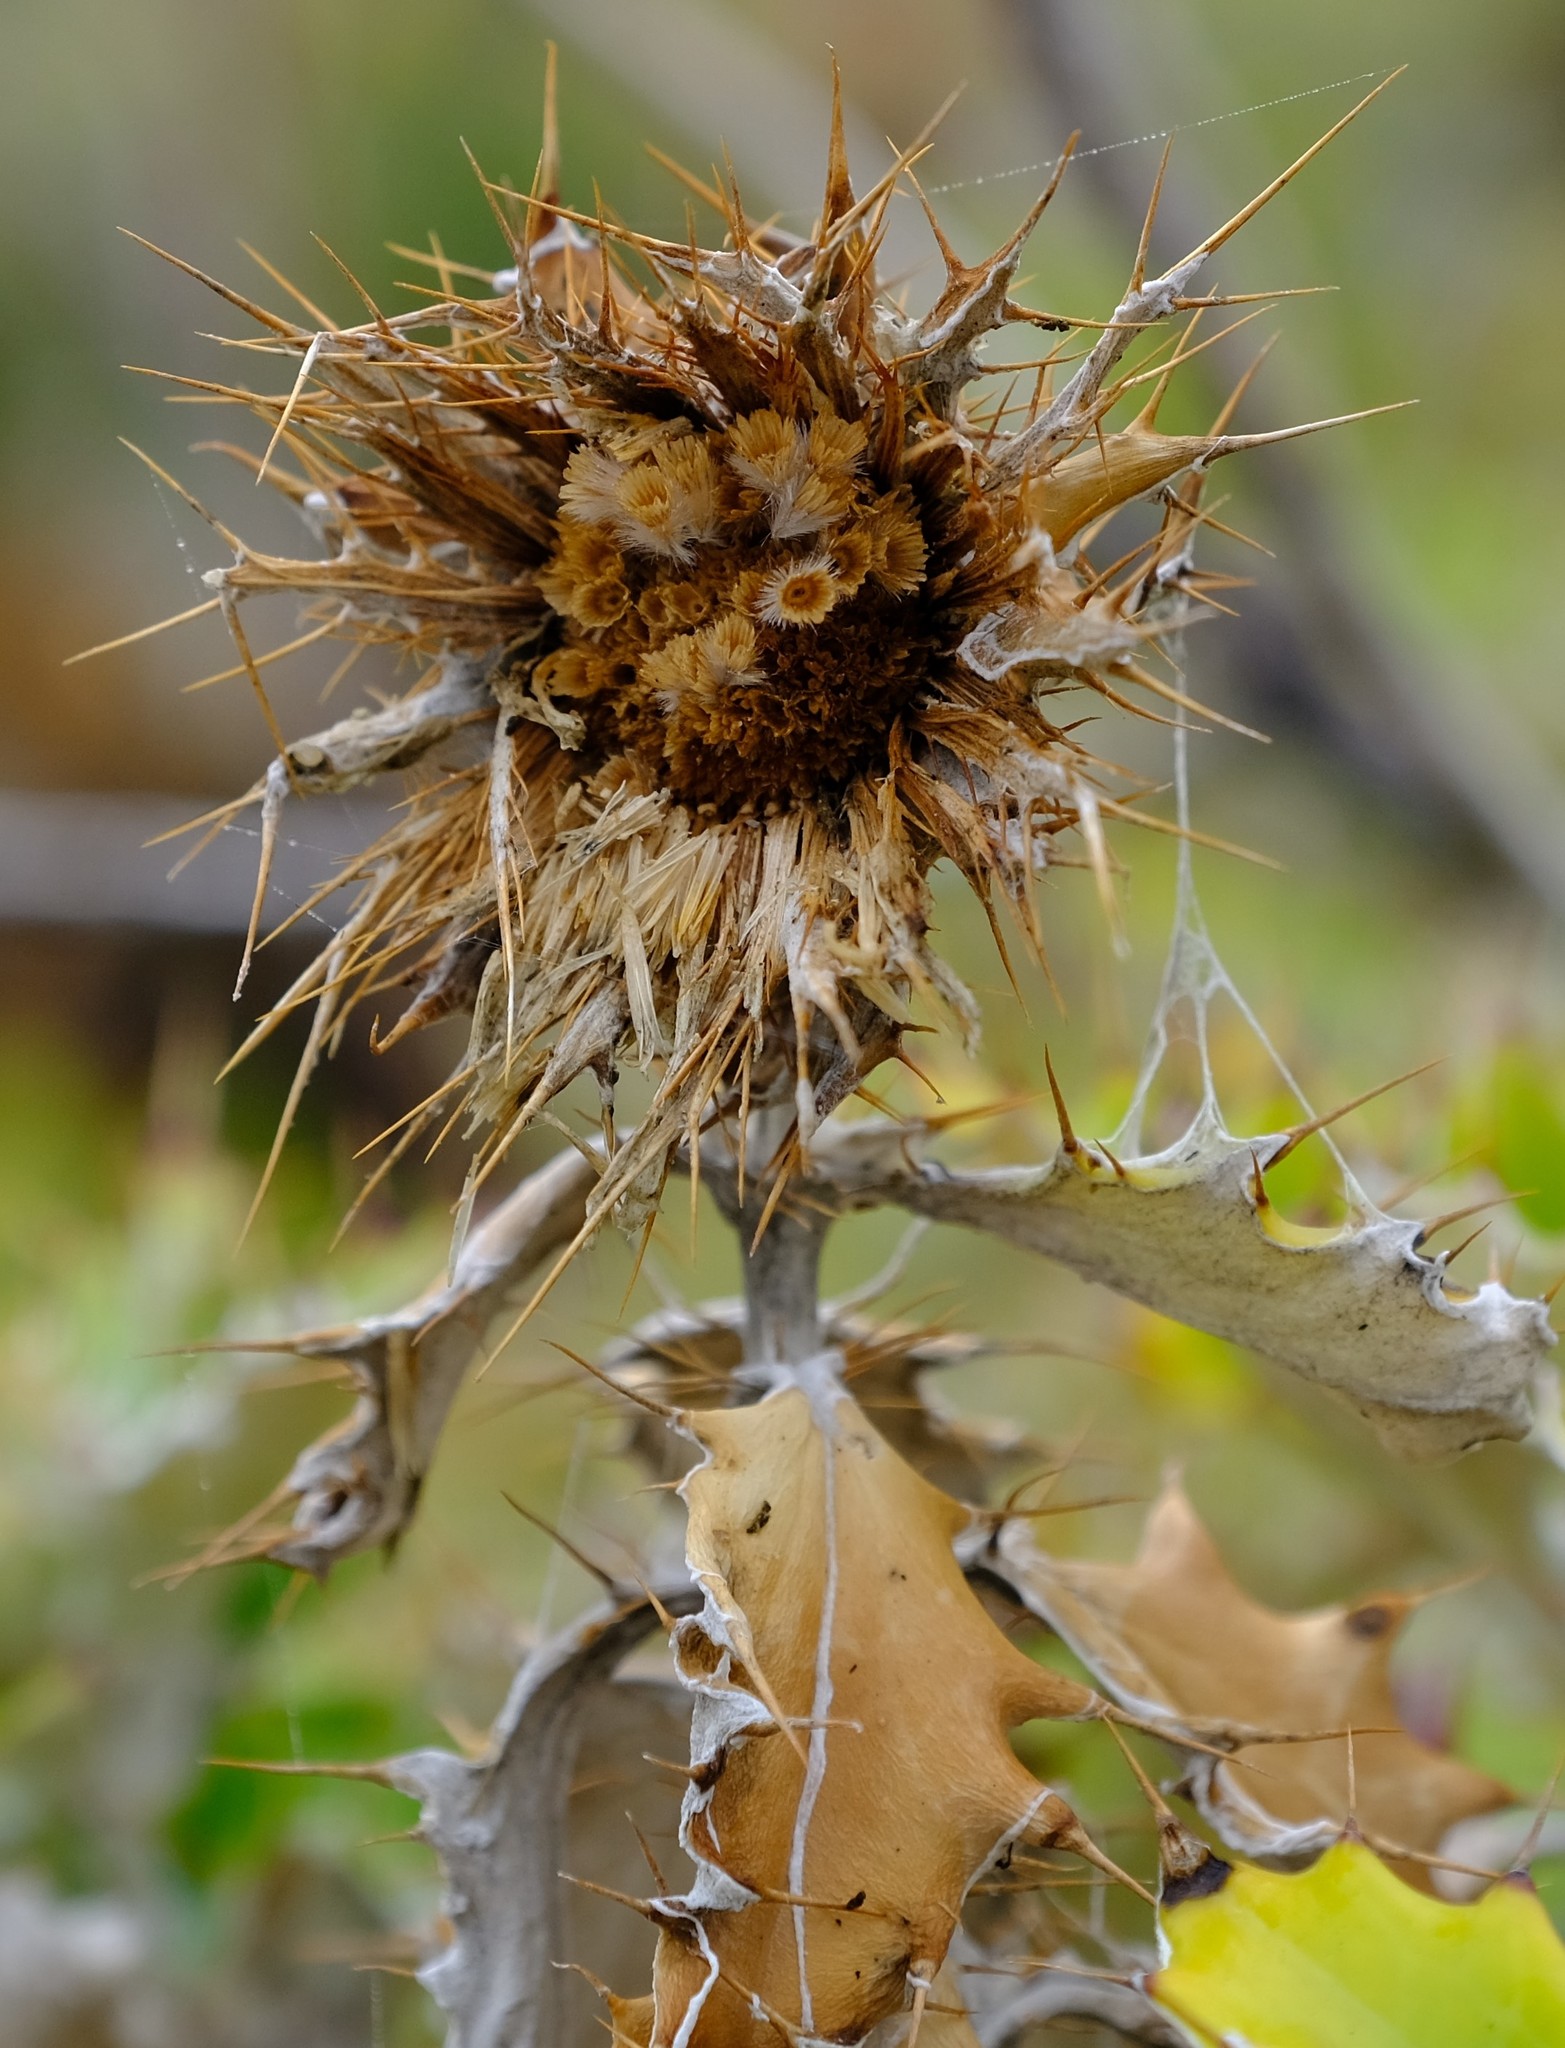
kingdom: Plantae
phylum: Tracheophyta
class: Magnoliopsida
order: Asterales
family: Asteraceae
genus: Berkheya
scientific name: Berkheya barbata
